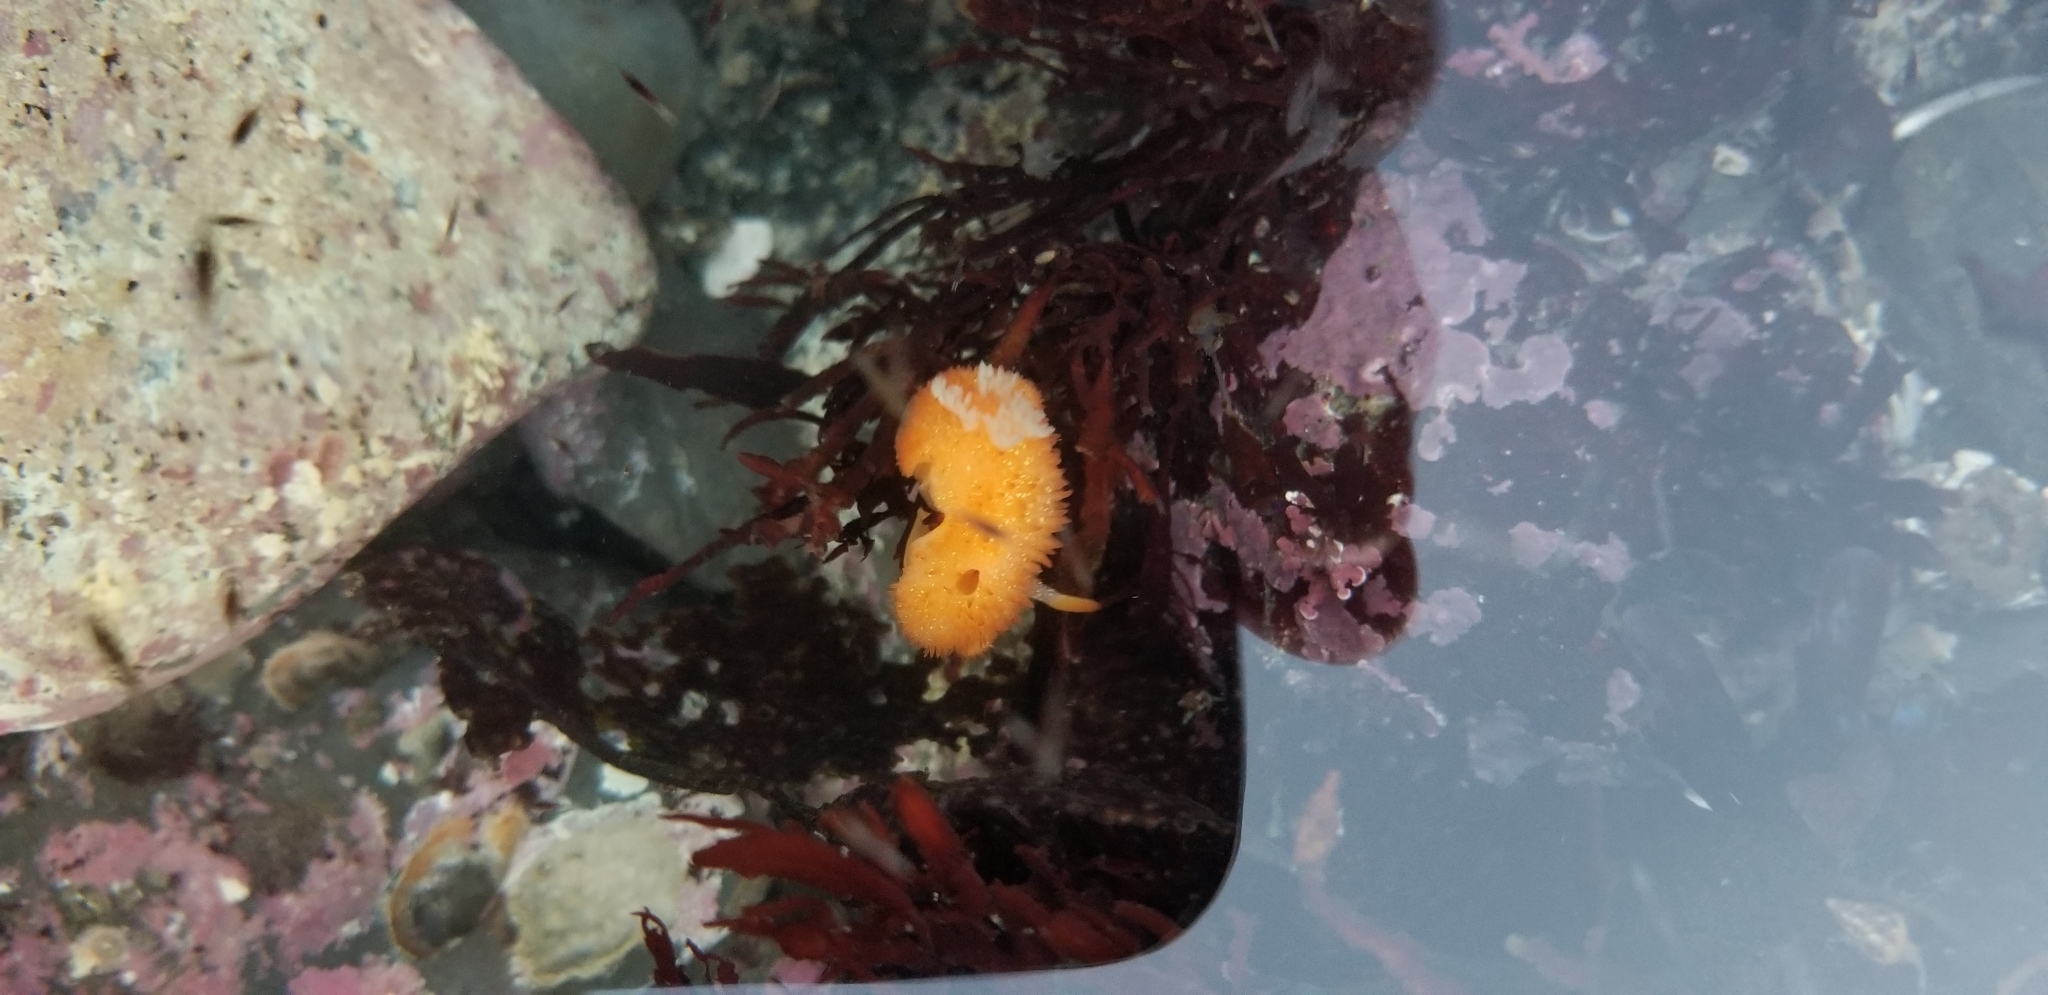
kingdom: Animalia
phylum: Mollusca
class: Gastropoda
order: Nudibranchia
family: Onchidorididae
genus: Acanthodoris
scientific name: Acanthodoris lutea
